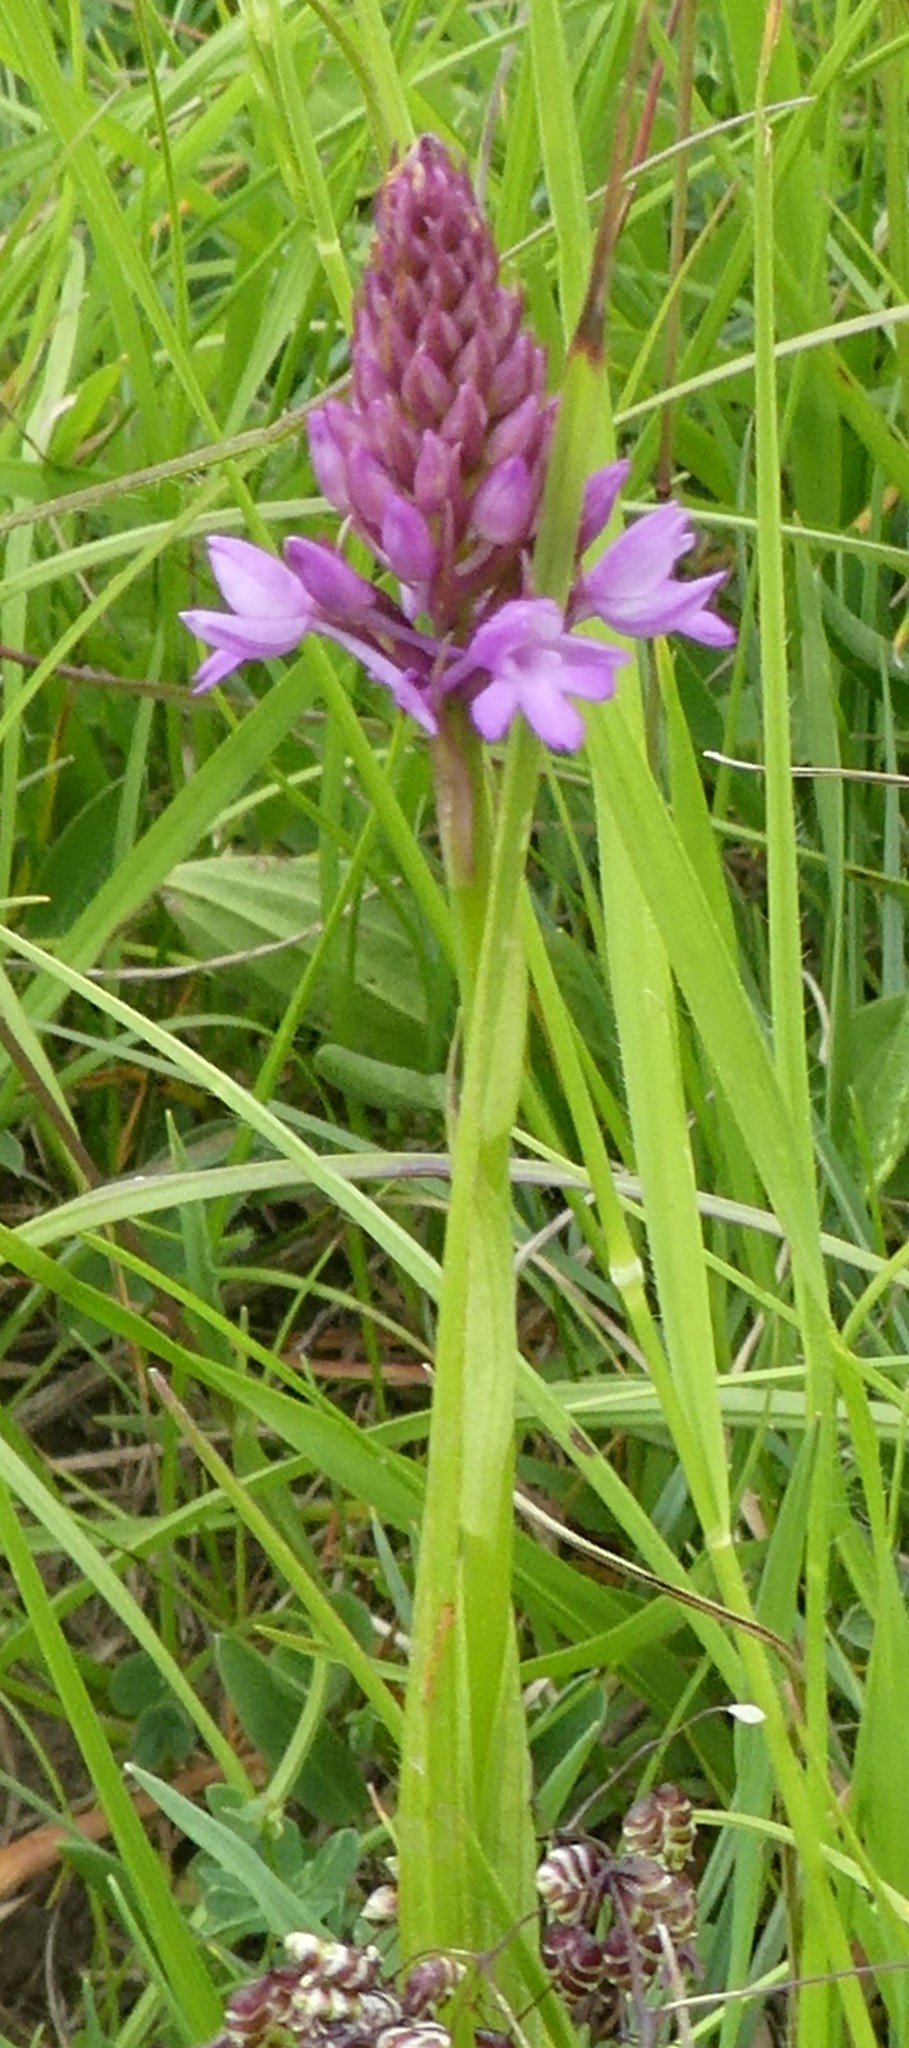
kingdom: Plantae
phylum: Tracheophyta
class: Liliopsida
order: Asparagales
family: Orchidaceae
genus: Anacamptis
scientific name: Anacamptis pyramidalis
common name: Pyramidal orchid
